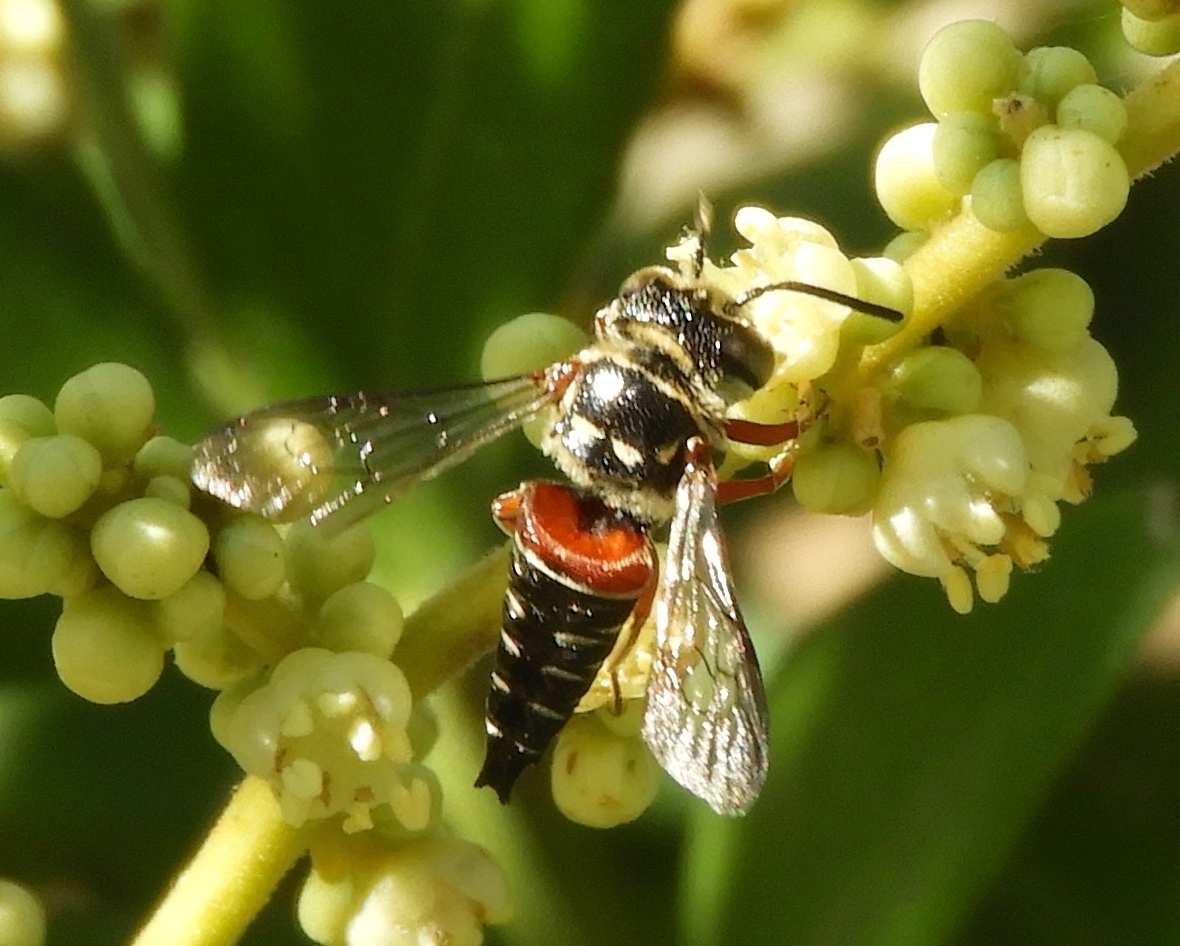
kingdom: Animalia
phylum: Arthropoda
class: Insecta
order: Hymenoptera
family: Megachilidae
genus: Coelioxys
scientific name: Coelioxys
